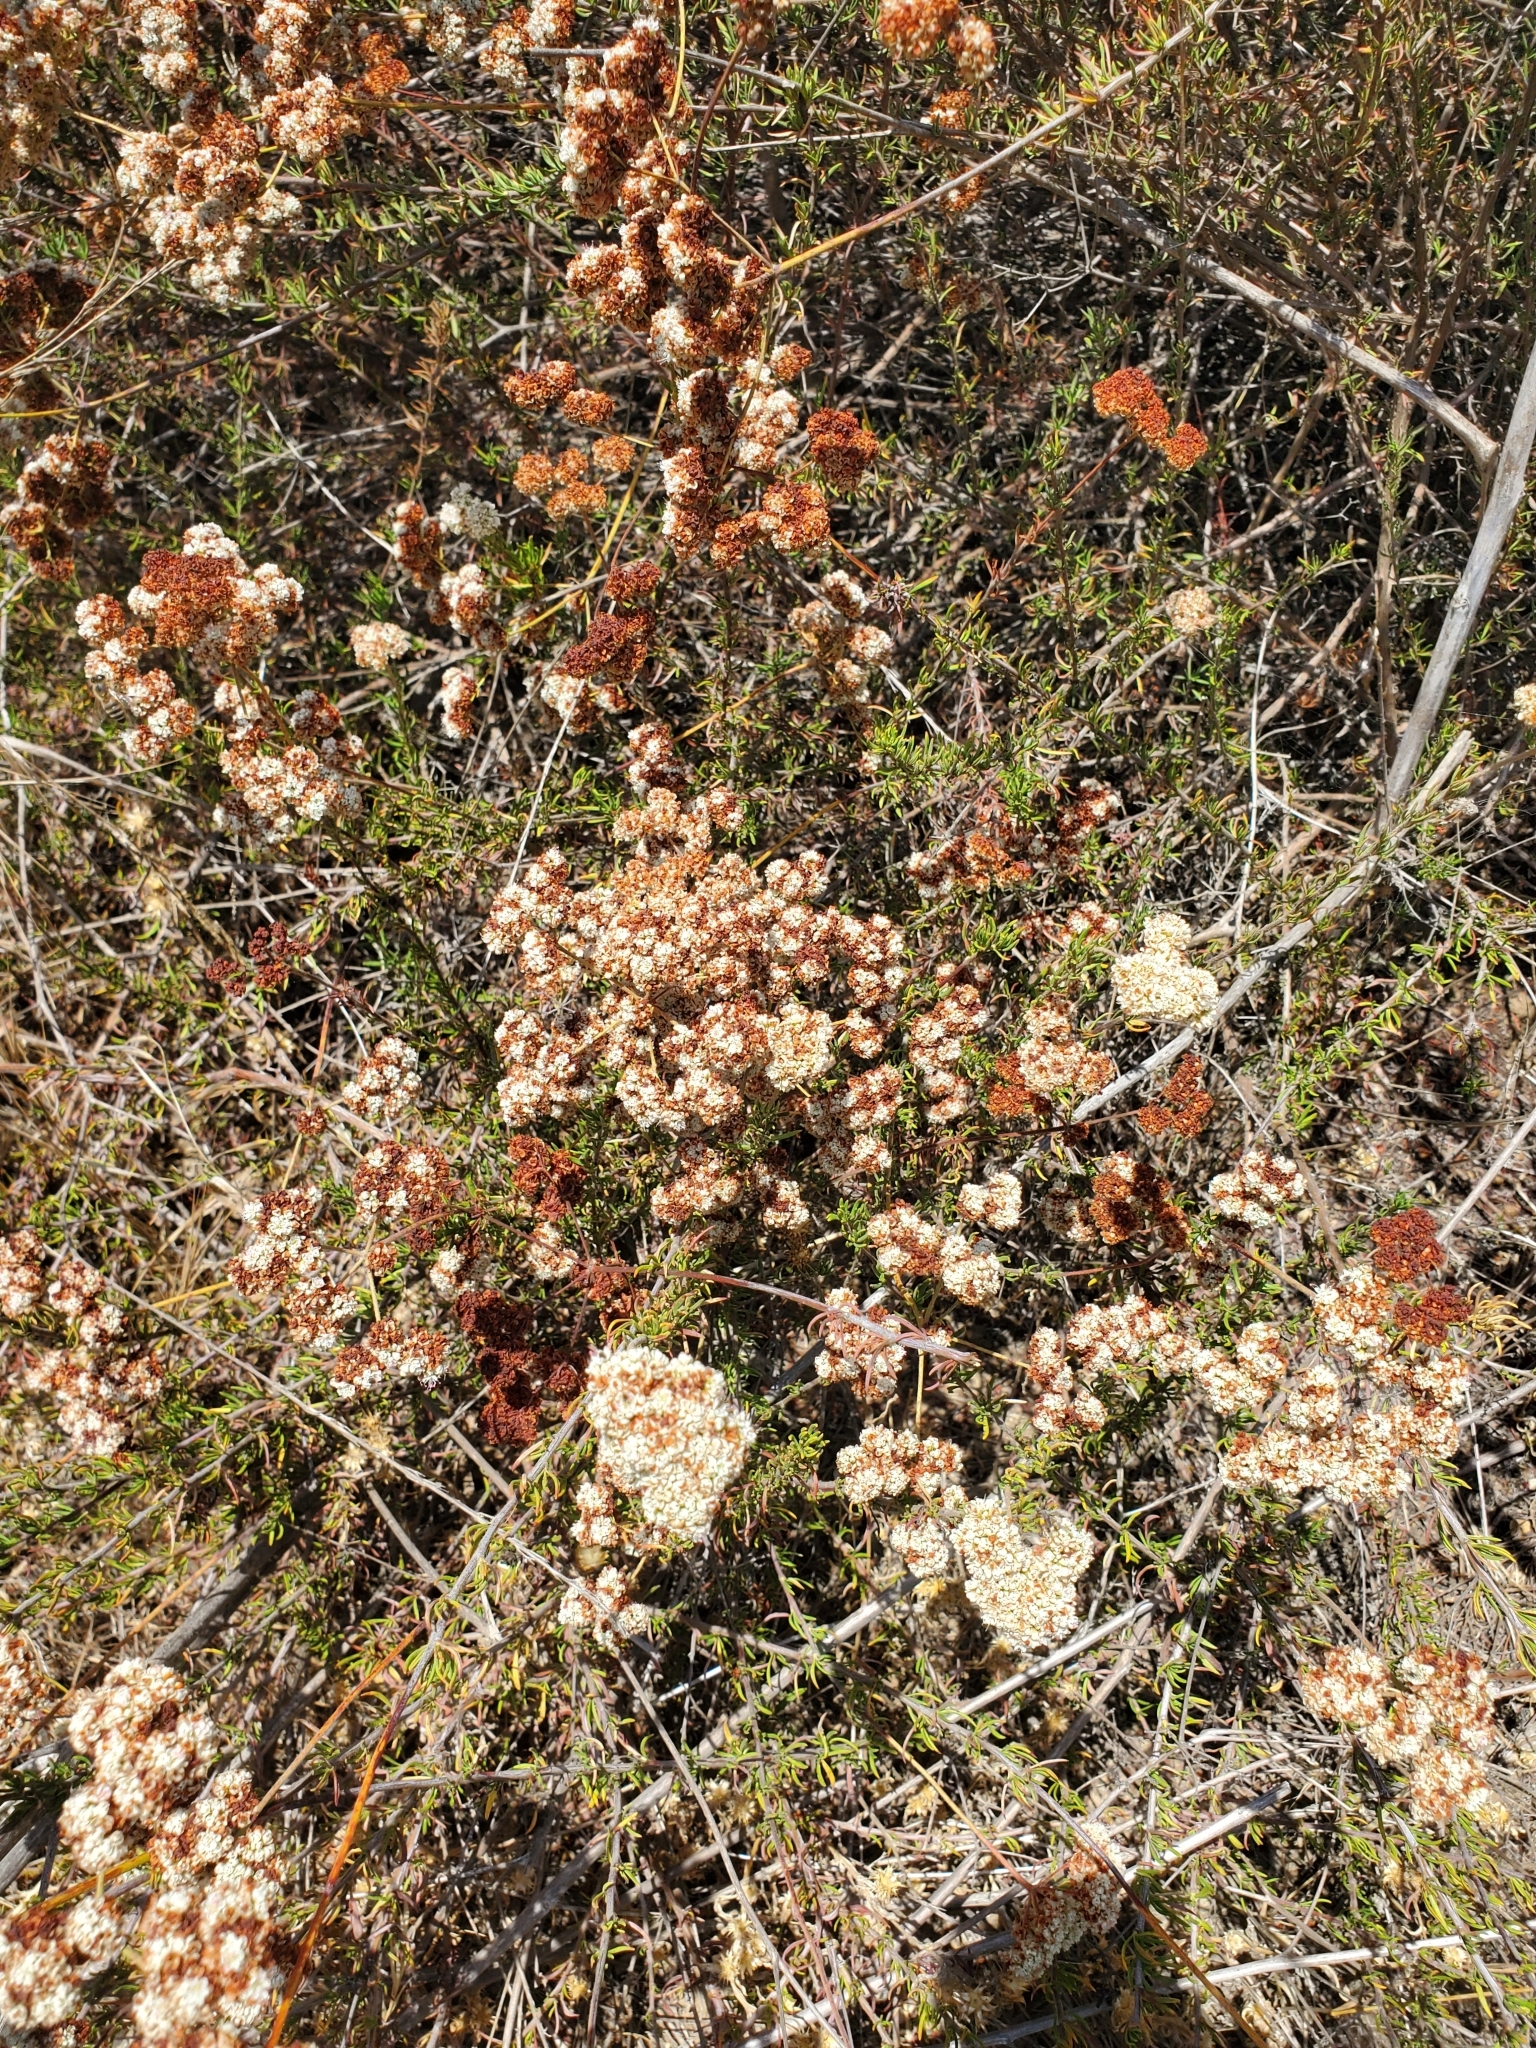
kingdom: Plantae
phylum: Tracheophyta
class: Magnoliopsida
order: Caryophyllales
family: Polygonaceae
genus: Eriogonum
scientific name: Eriogonum fasciculatum
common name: California wild buckwheat
